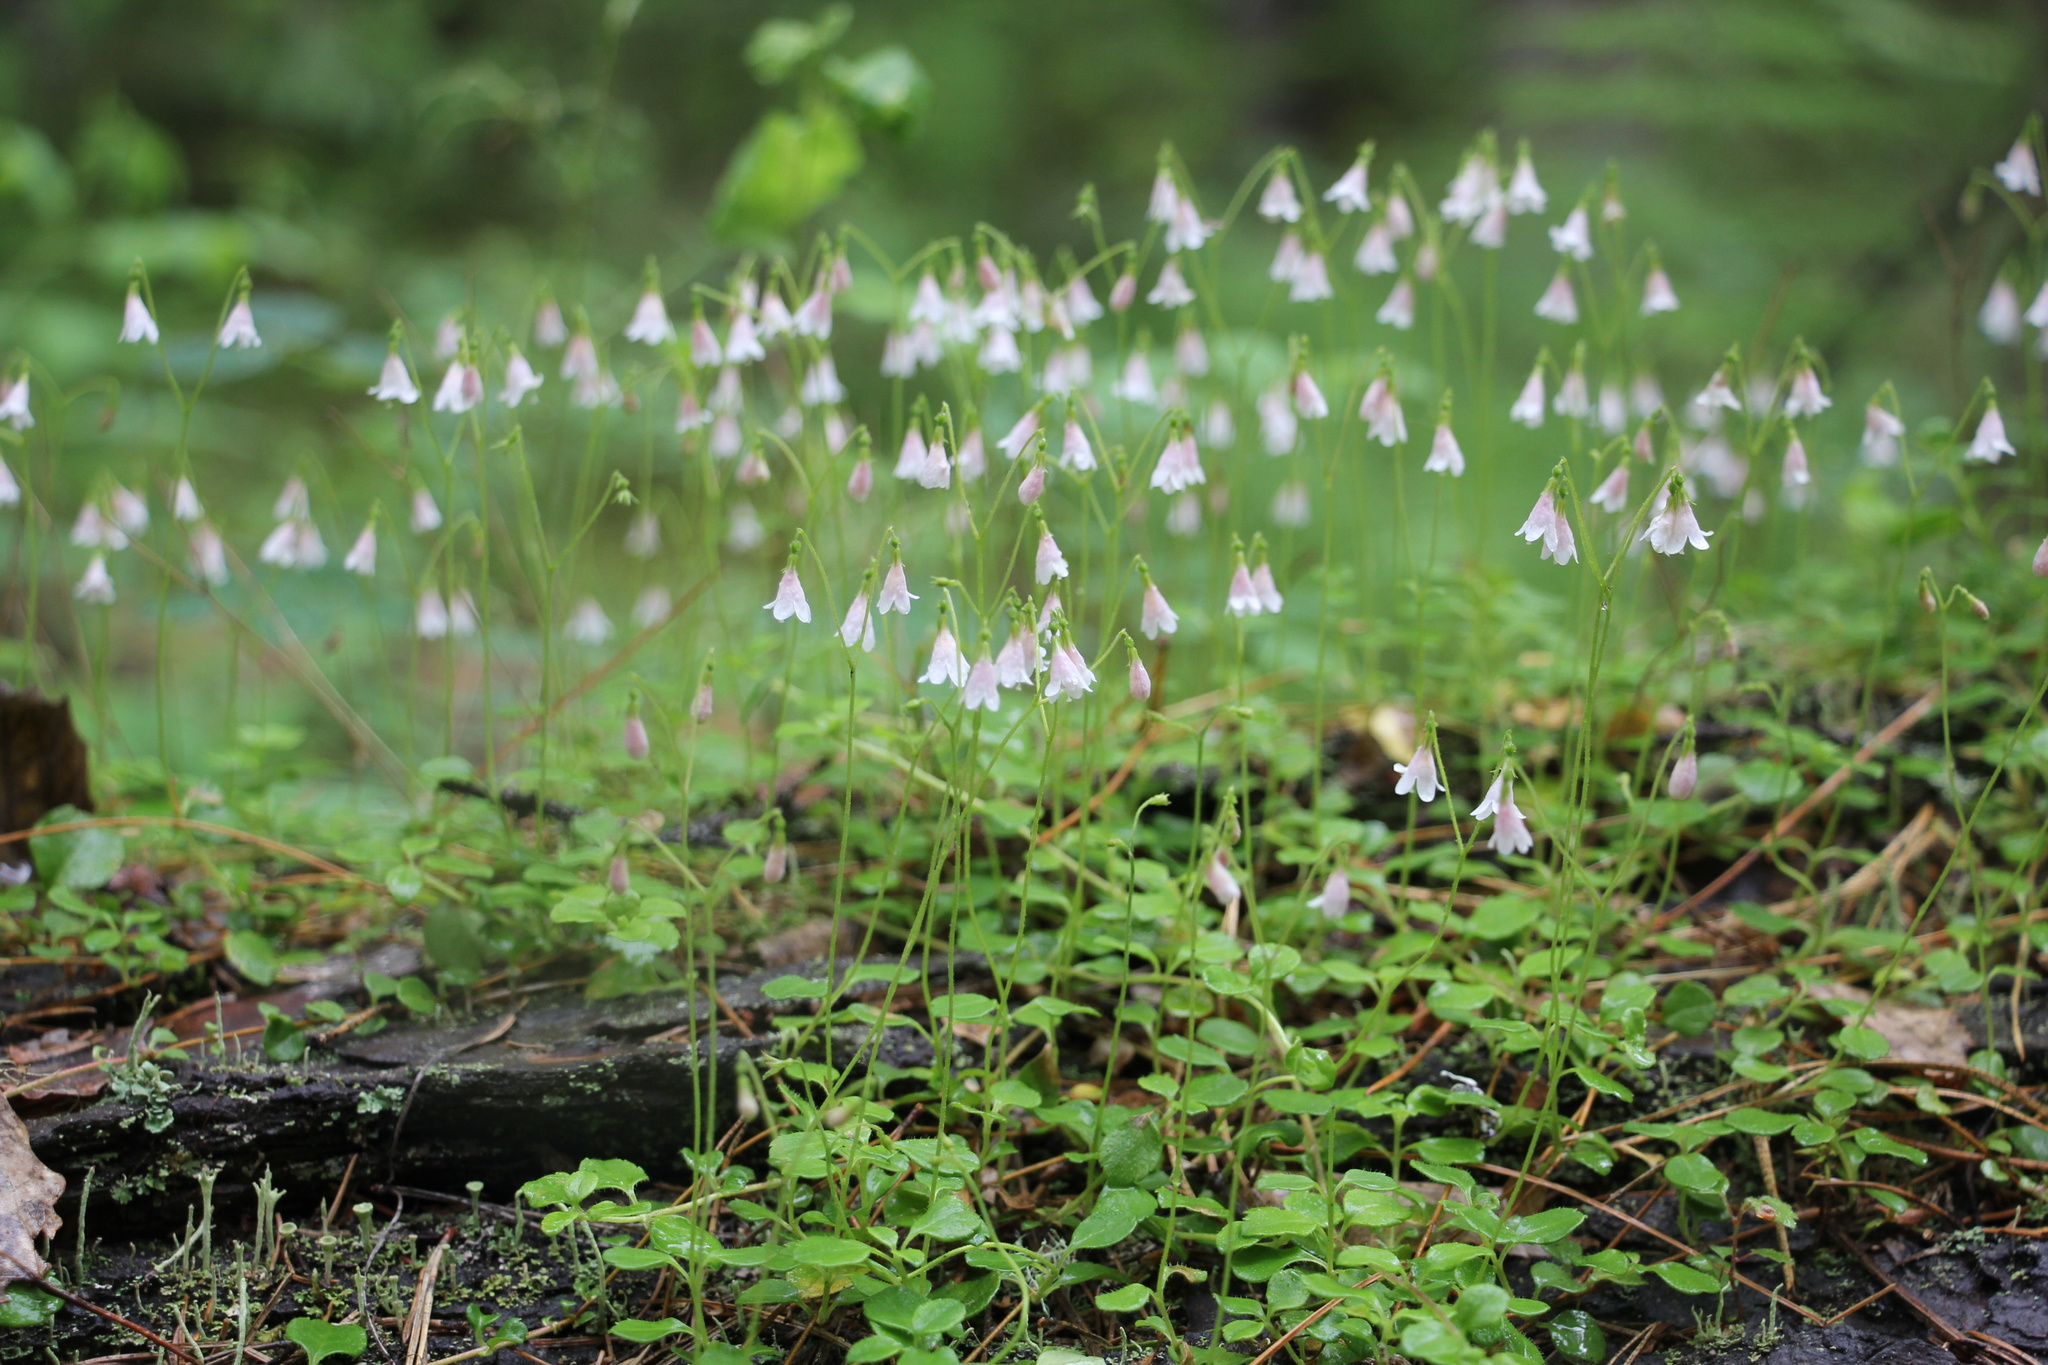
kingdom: Plantae
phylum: Tracheophyta
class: Magnoliopsida
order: Dipsacales
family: Caprifoliaceae
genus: Linnaea
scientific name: Linnaea borealis
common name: Twinflower
